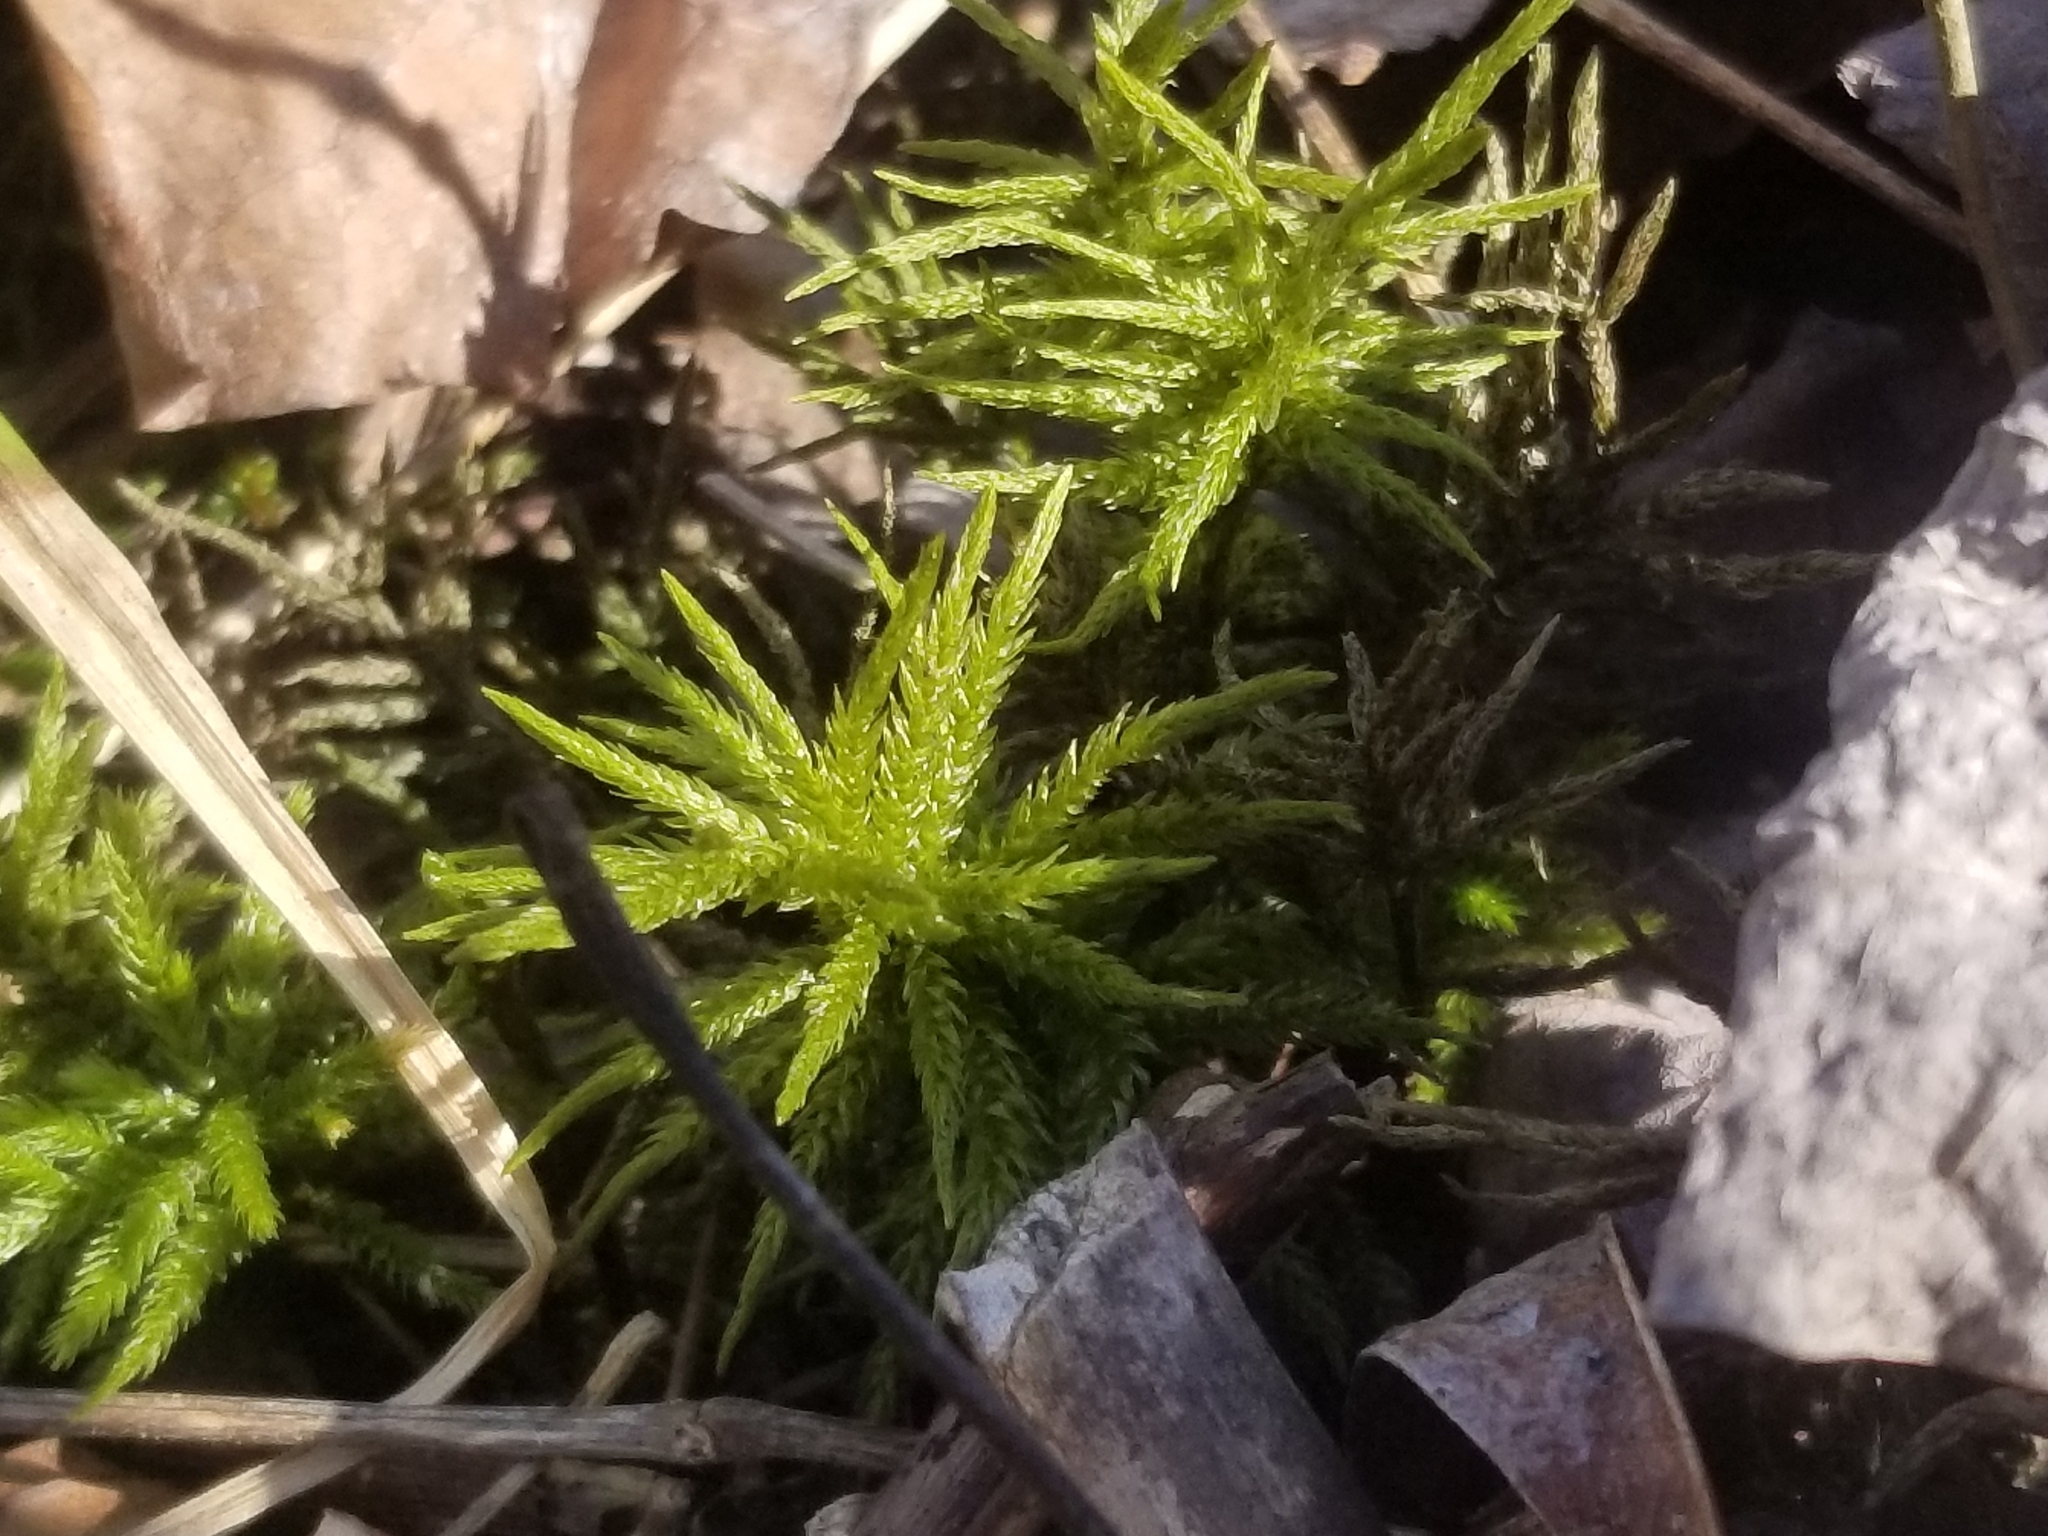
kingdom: Plantae
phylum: Bryophyta
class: Bryopsida
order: Hypnales
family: Climaciaceae
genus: Climacium
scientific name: Climacium americanum
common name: American tree moss
